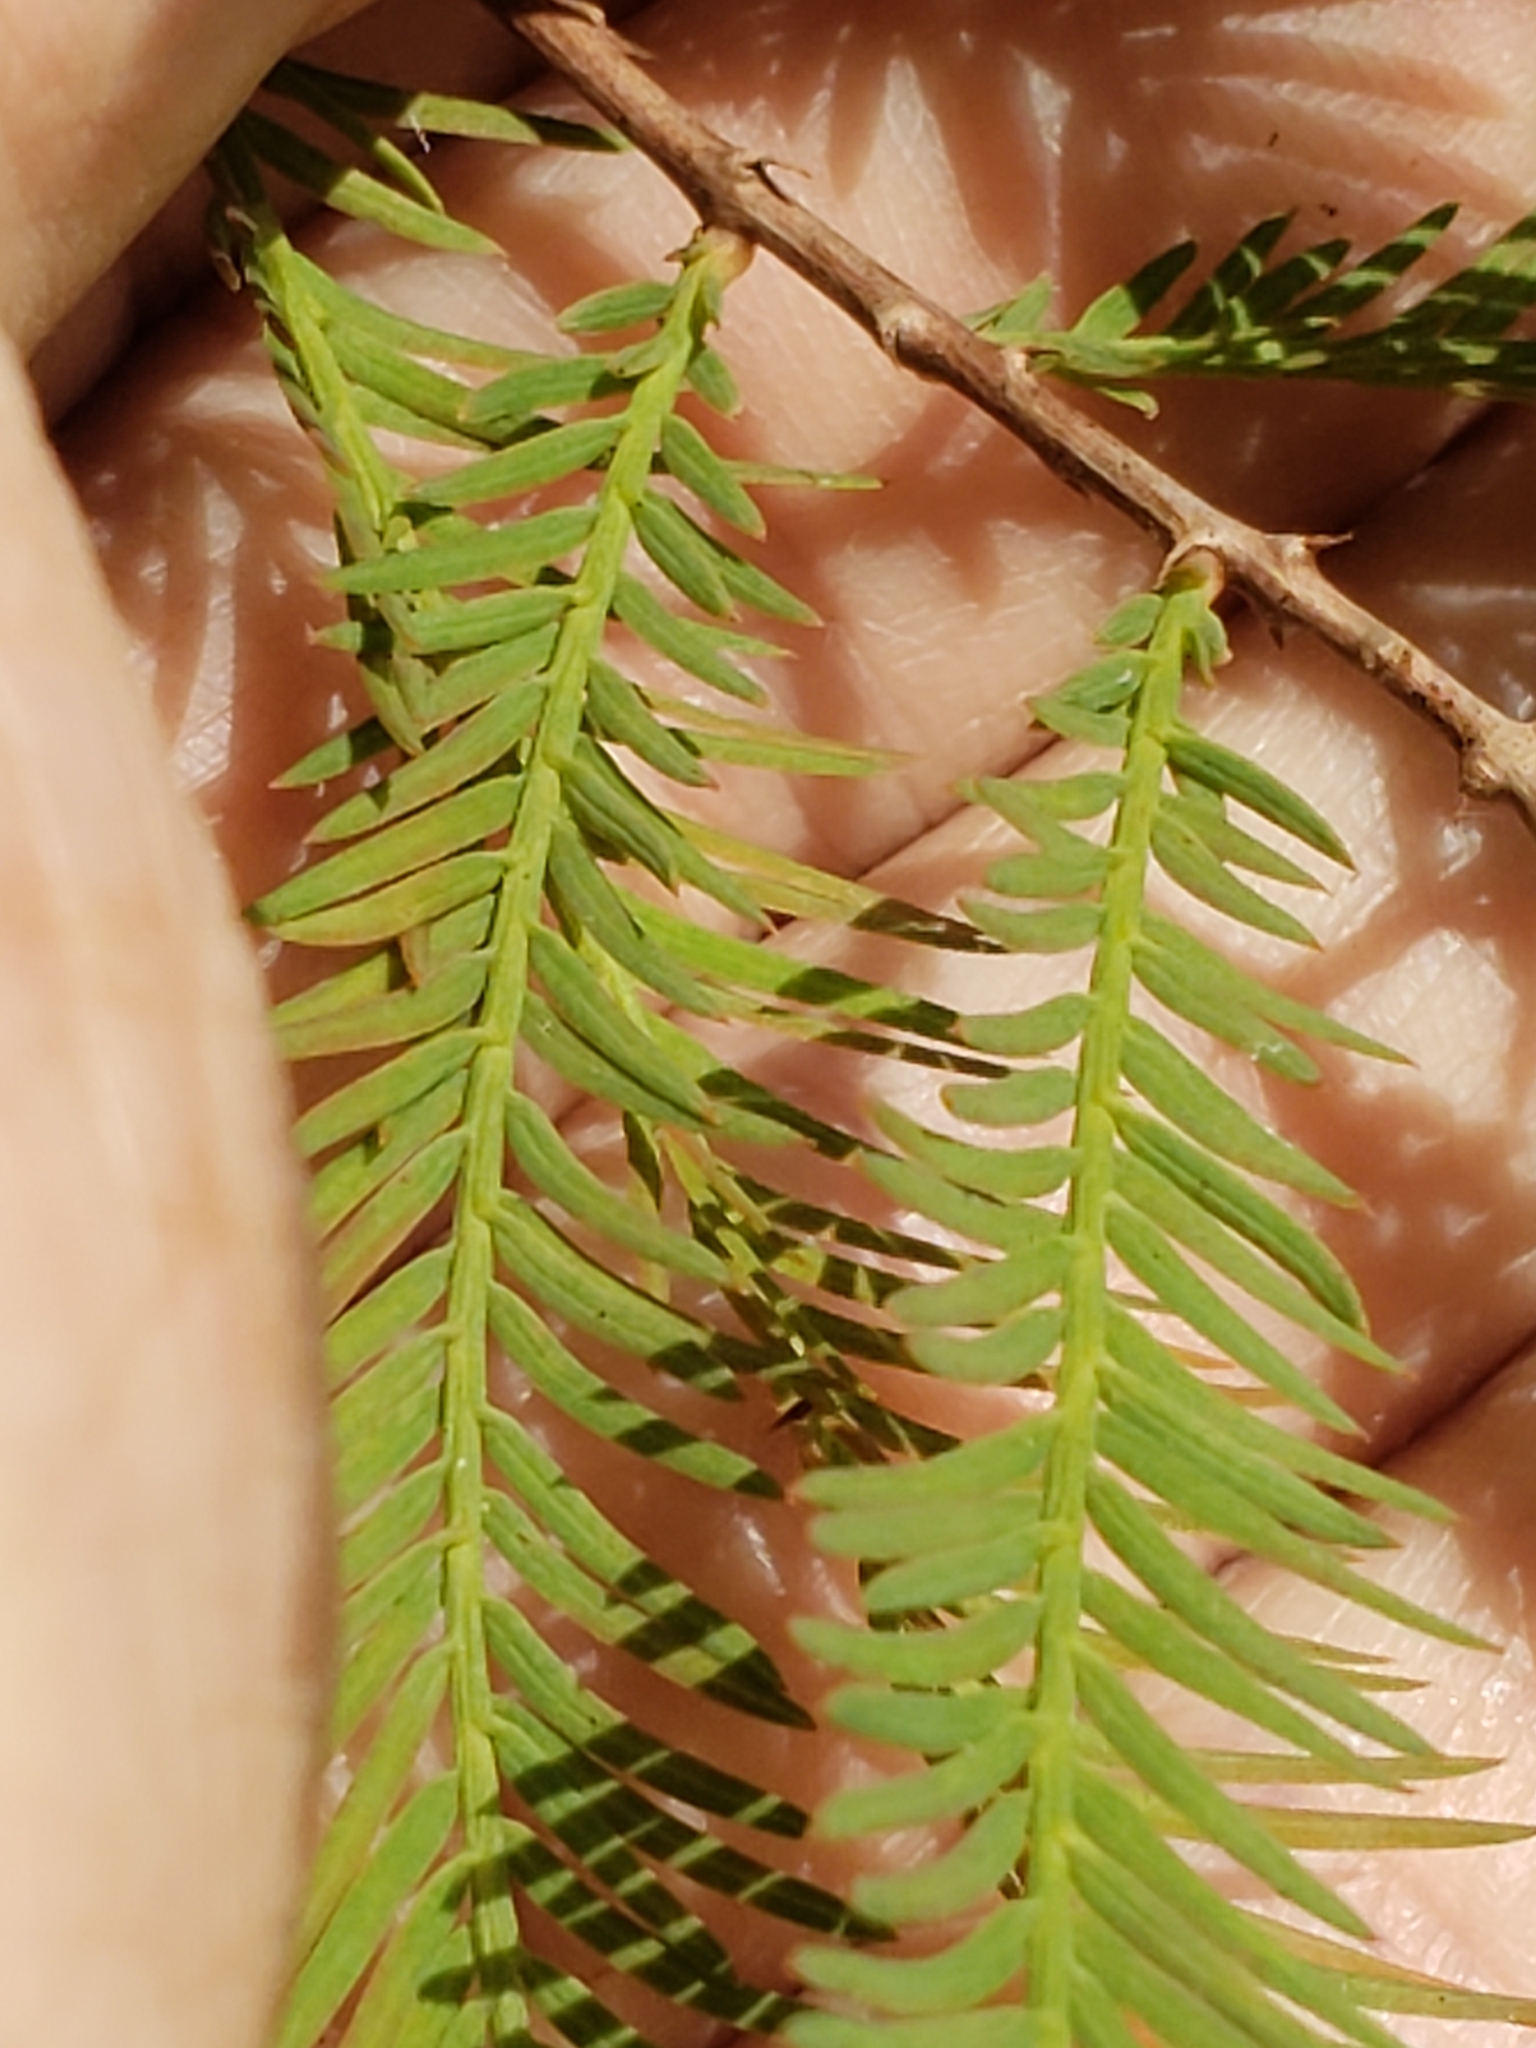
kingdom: Plantae
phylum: Tracheophyta
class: Pinopsida
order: Pinales
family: Cupressaceae
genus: Taxodium
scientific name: Taxodium distichum
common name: Bald cypress
